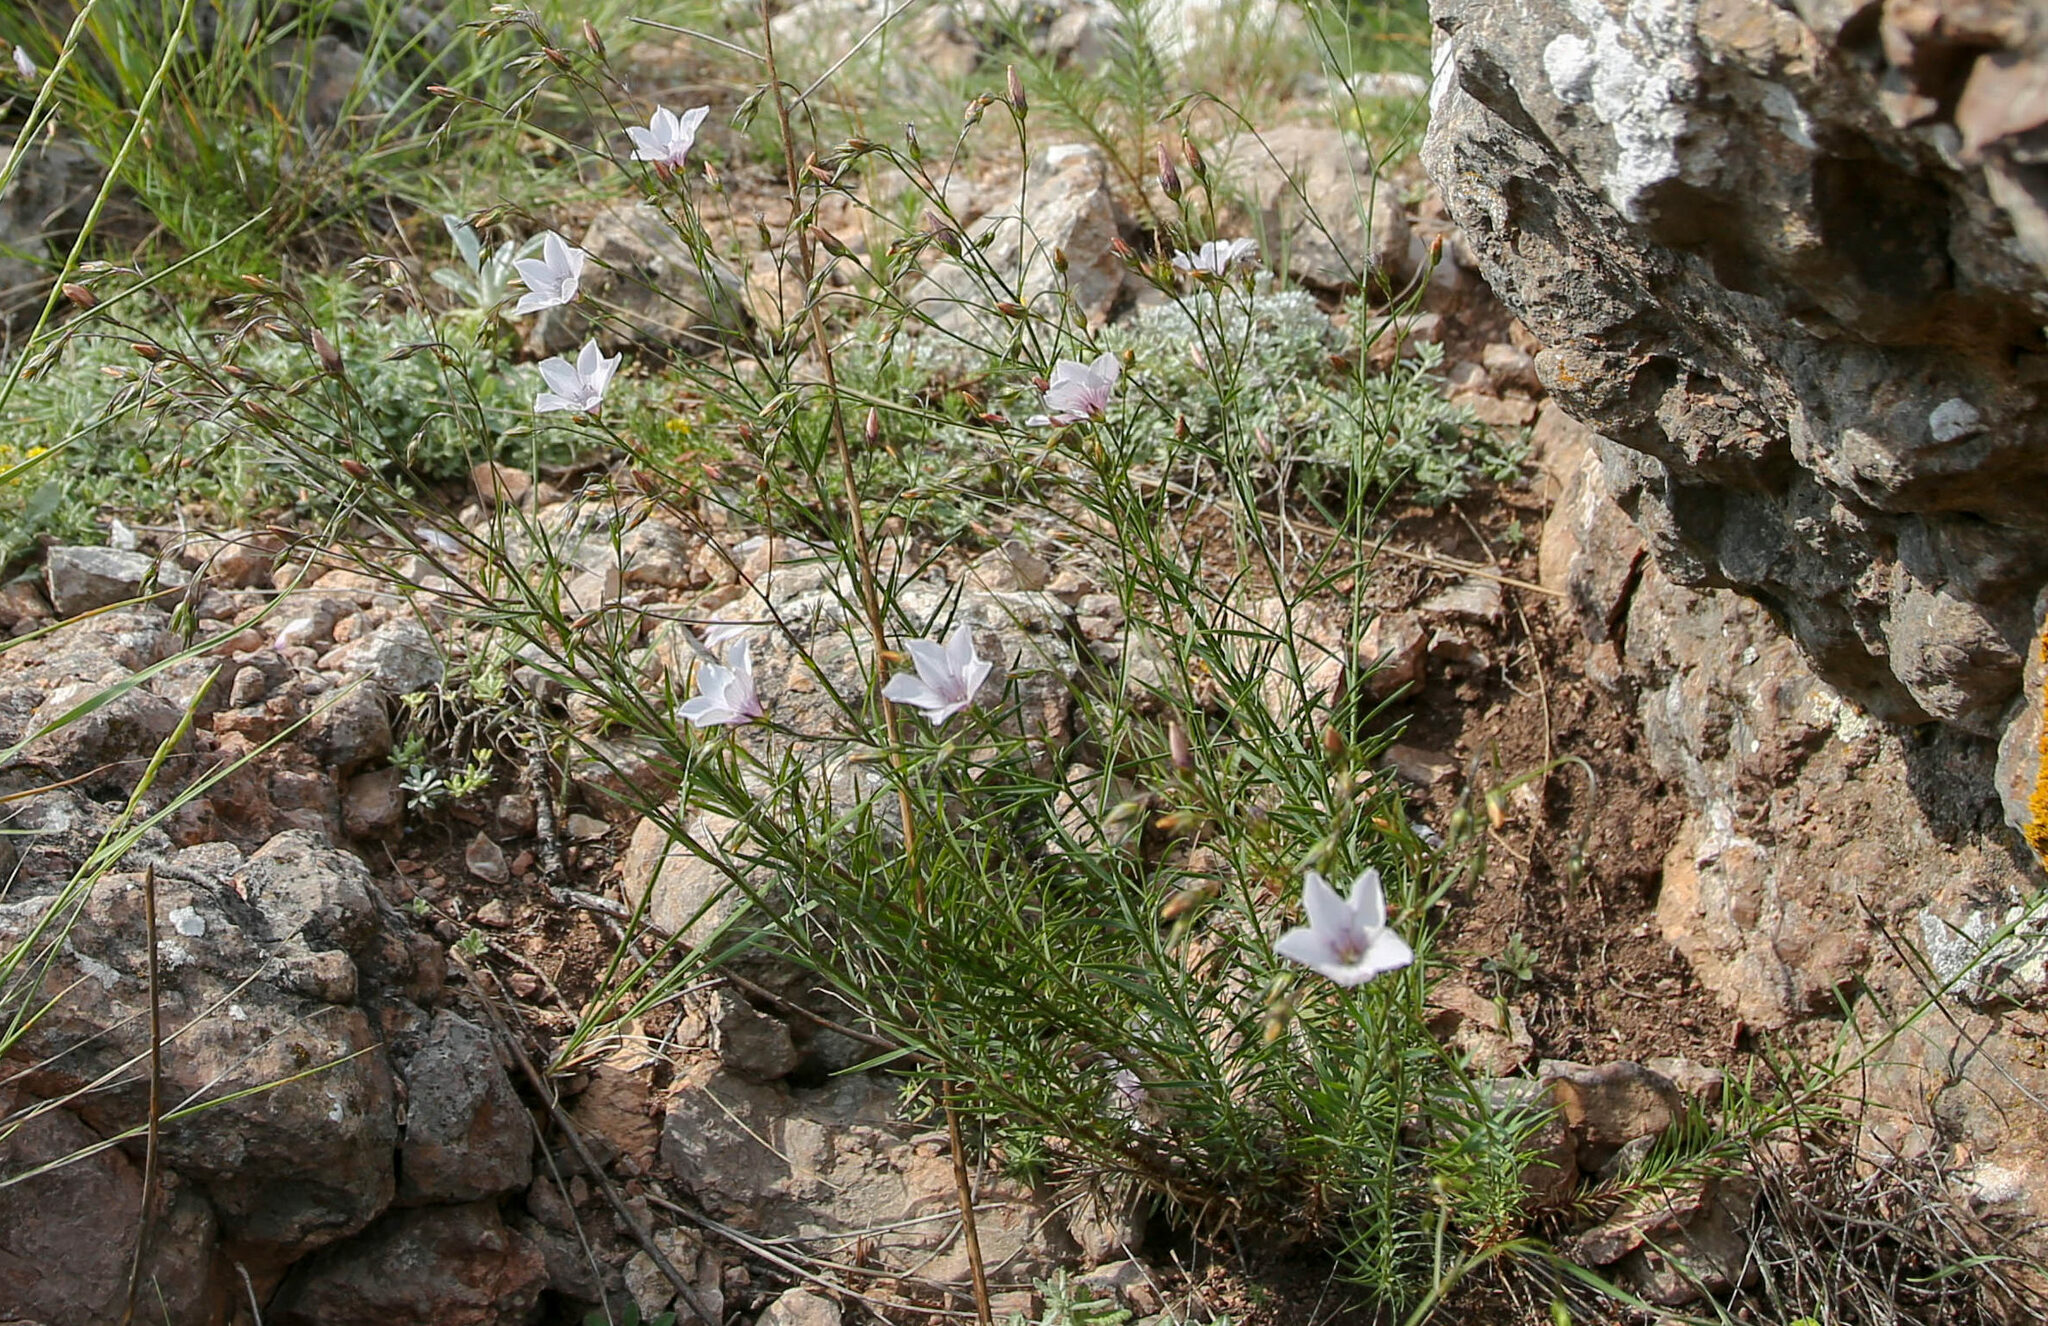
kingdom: Plantae
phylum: Tracheophyta
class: Magnoliopsida
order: Malpighiales
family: Linaceae
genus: Linum
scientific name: Linum tenuifolium
